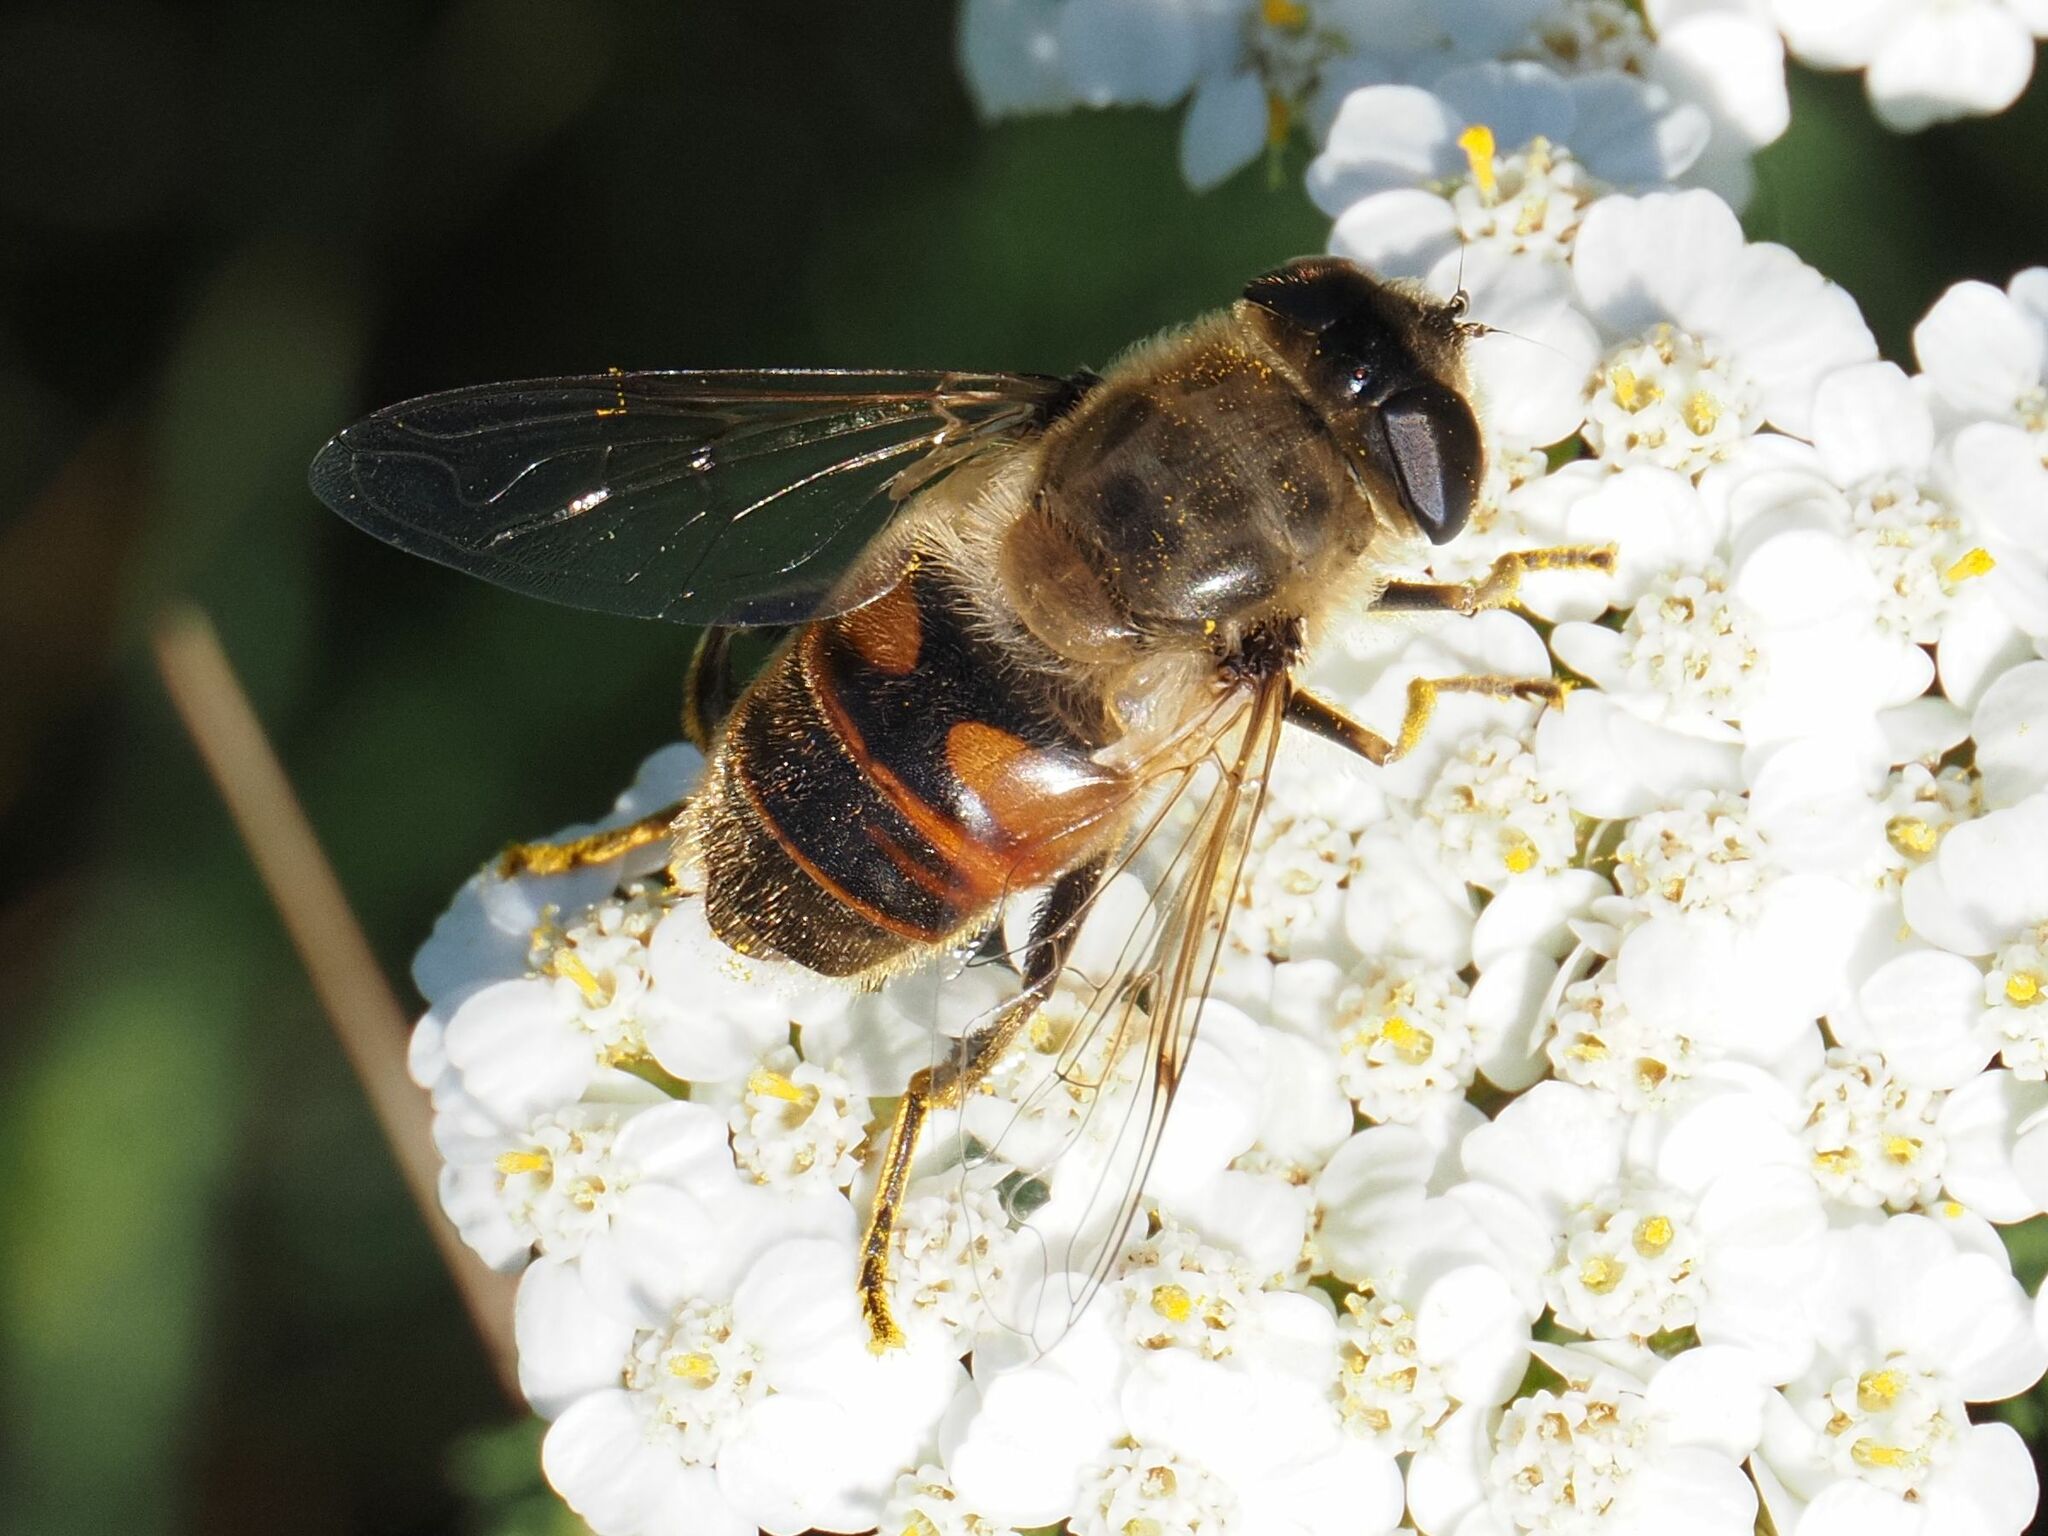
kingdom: Animalia
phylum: Arthropoda
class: Insecta
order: Diptera
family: Syrphidae
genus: Eristalis
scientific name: Eristalis tenax
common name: Drone fly
